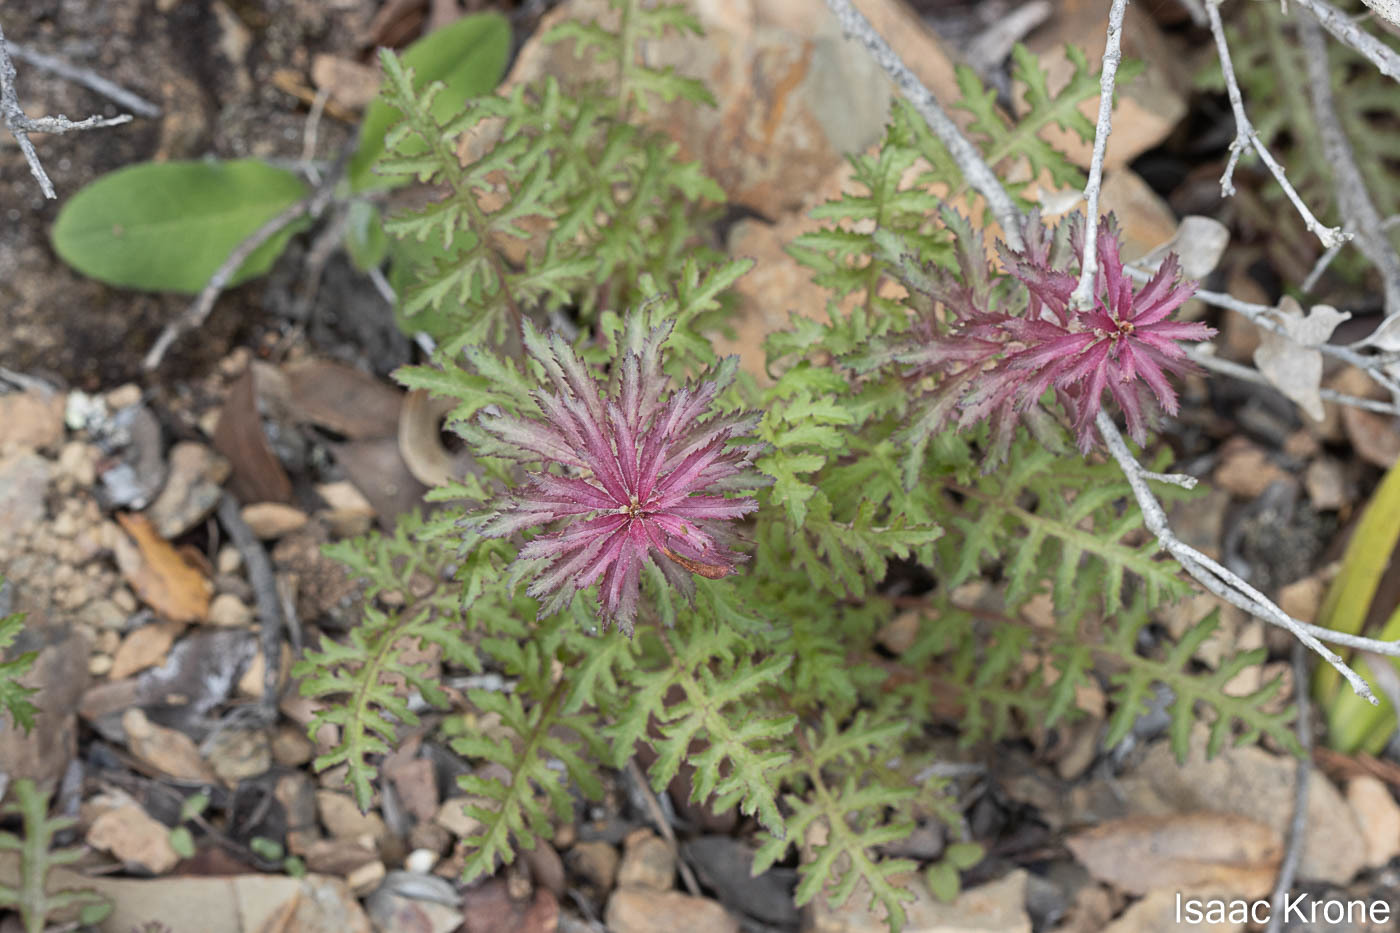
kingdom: Plantae
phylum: Tracheophyta
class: Magnoliopsida
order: Lamiales
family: Orobanchaceae
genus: Pedicularis
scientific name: Pedicularis densiflora
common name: Indian warrior
